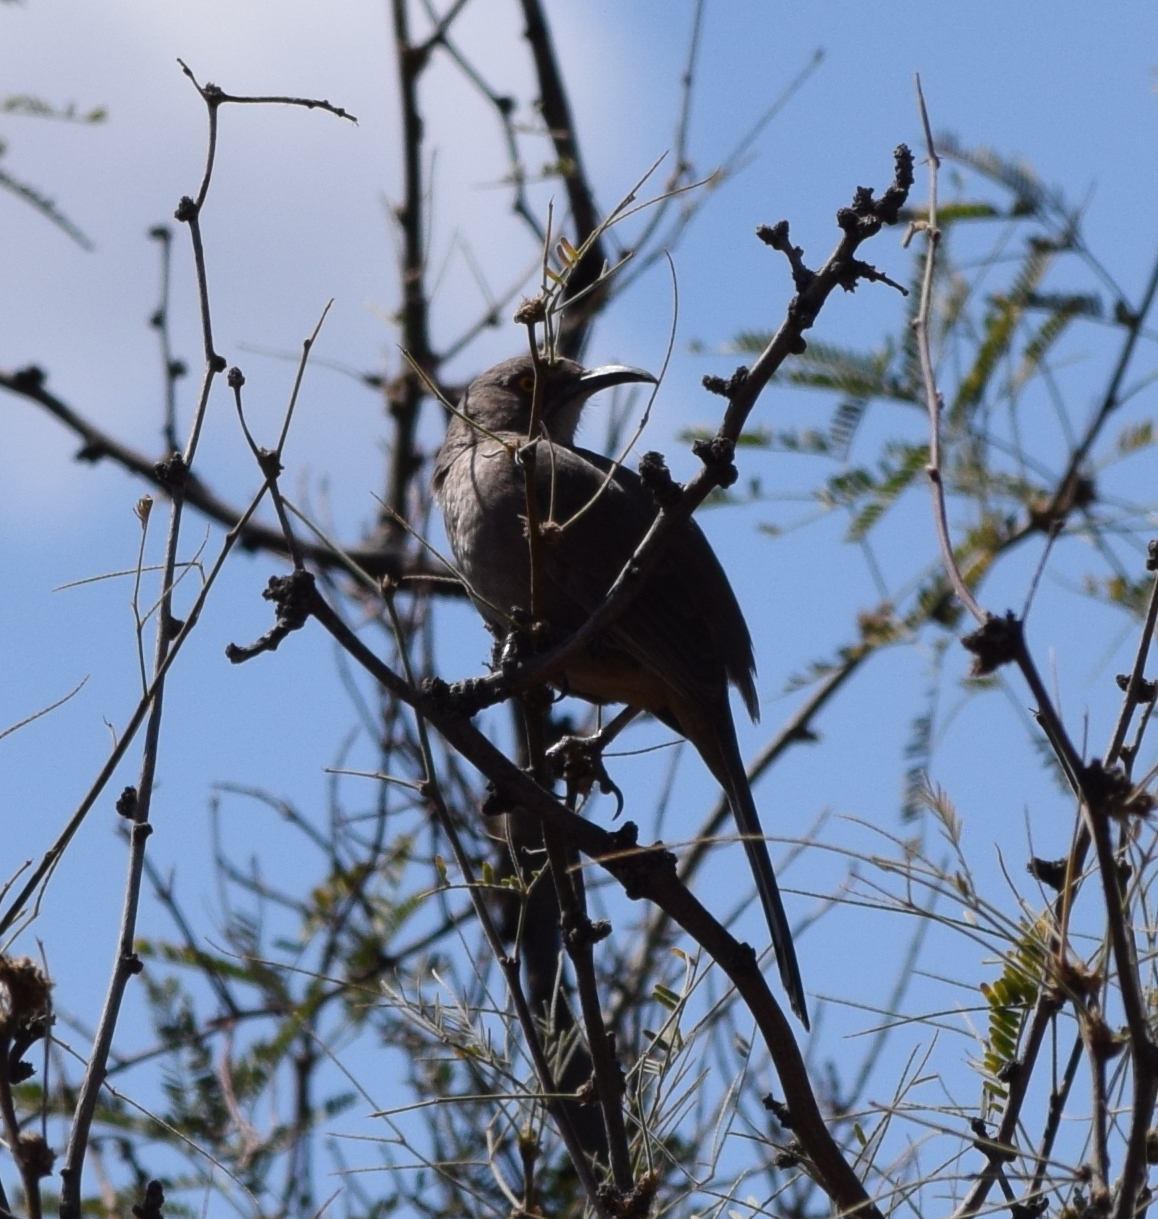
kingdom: Animalia
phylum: Chordata
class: Aves
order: Passeriformes
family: Mimidae
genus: Toxostoma
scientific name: Toxostoma curvirostre
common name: Curve-billed thrasher
